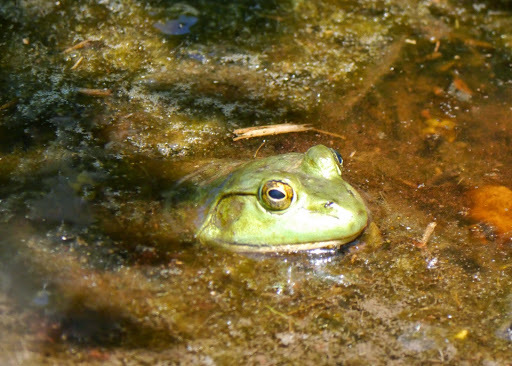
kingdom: Animalia
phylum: Chordata
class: Amphibia
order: Anura
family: Ranidae
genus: Lithobates
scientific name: Lithobates catesbeianus
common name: American bullfrog
